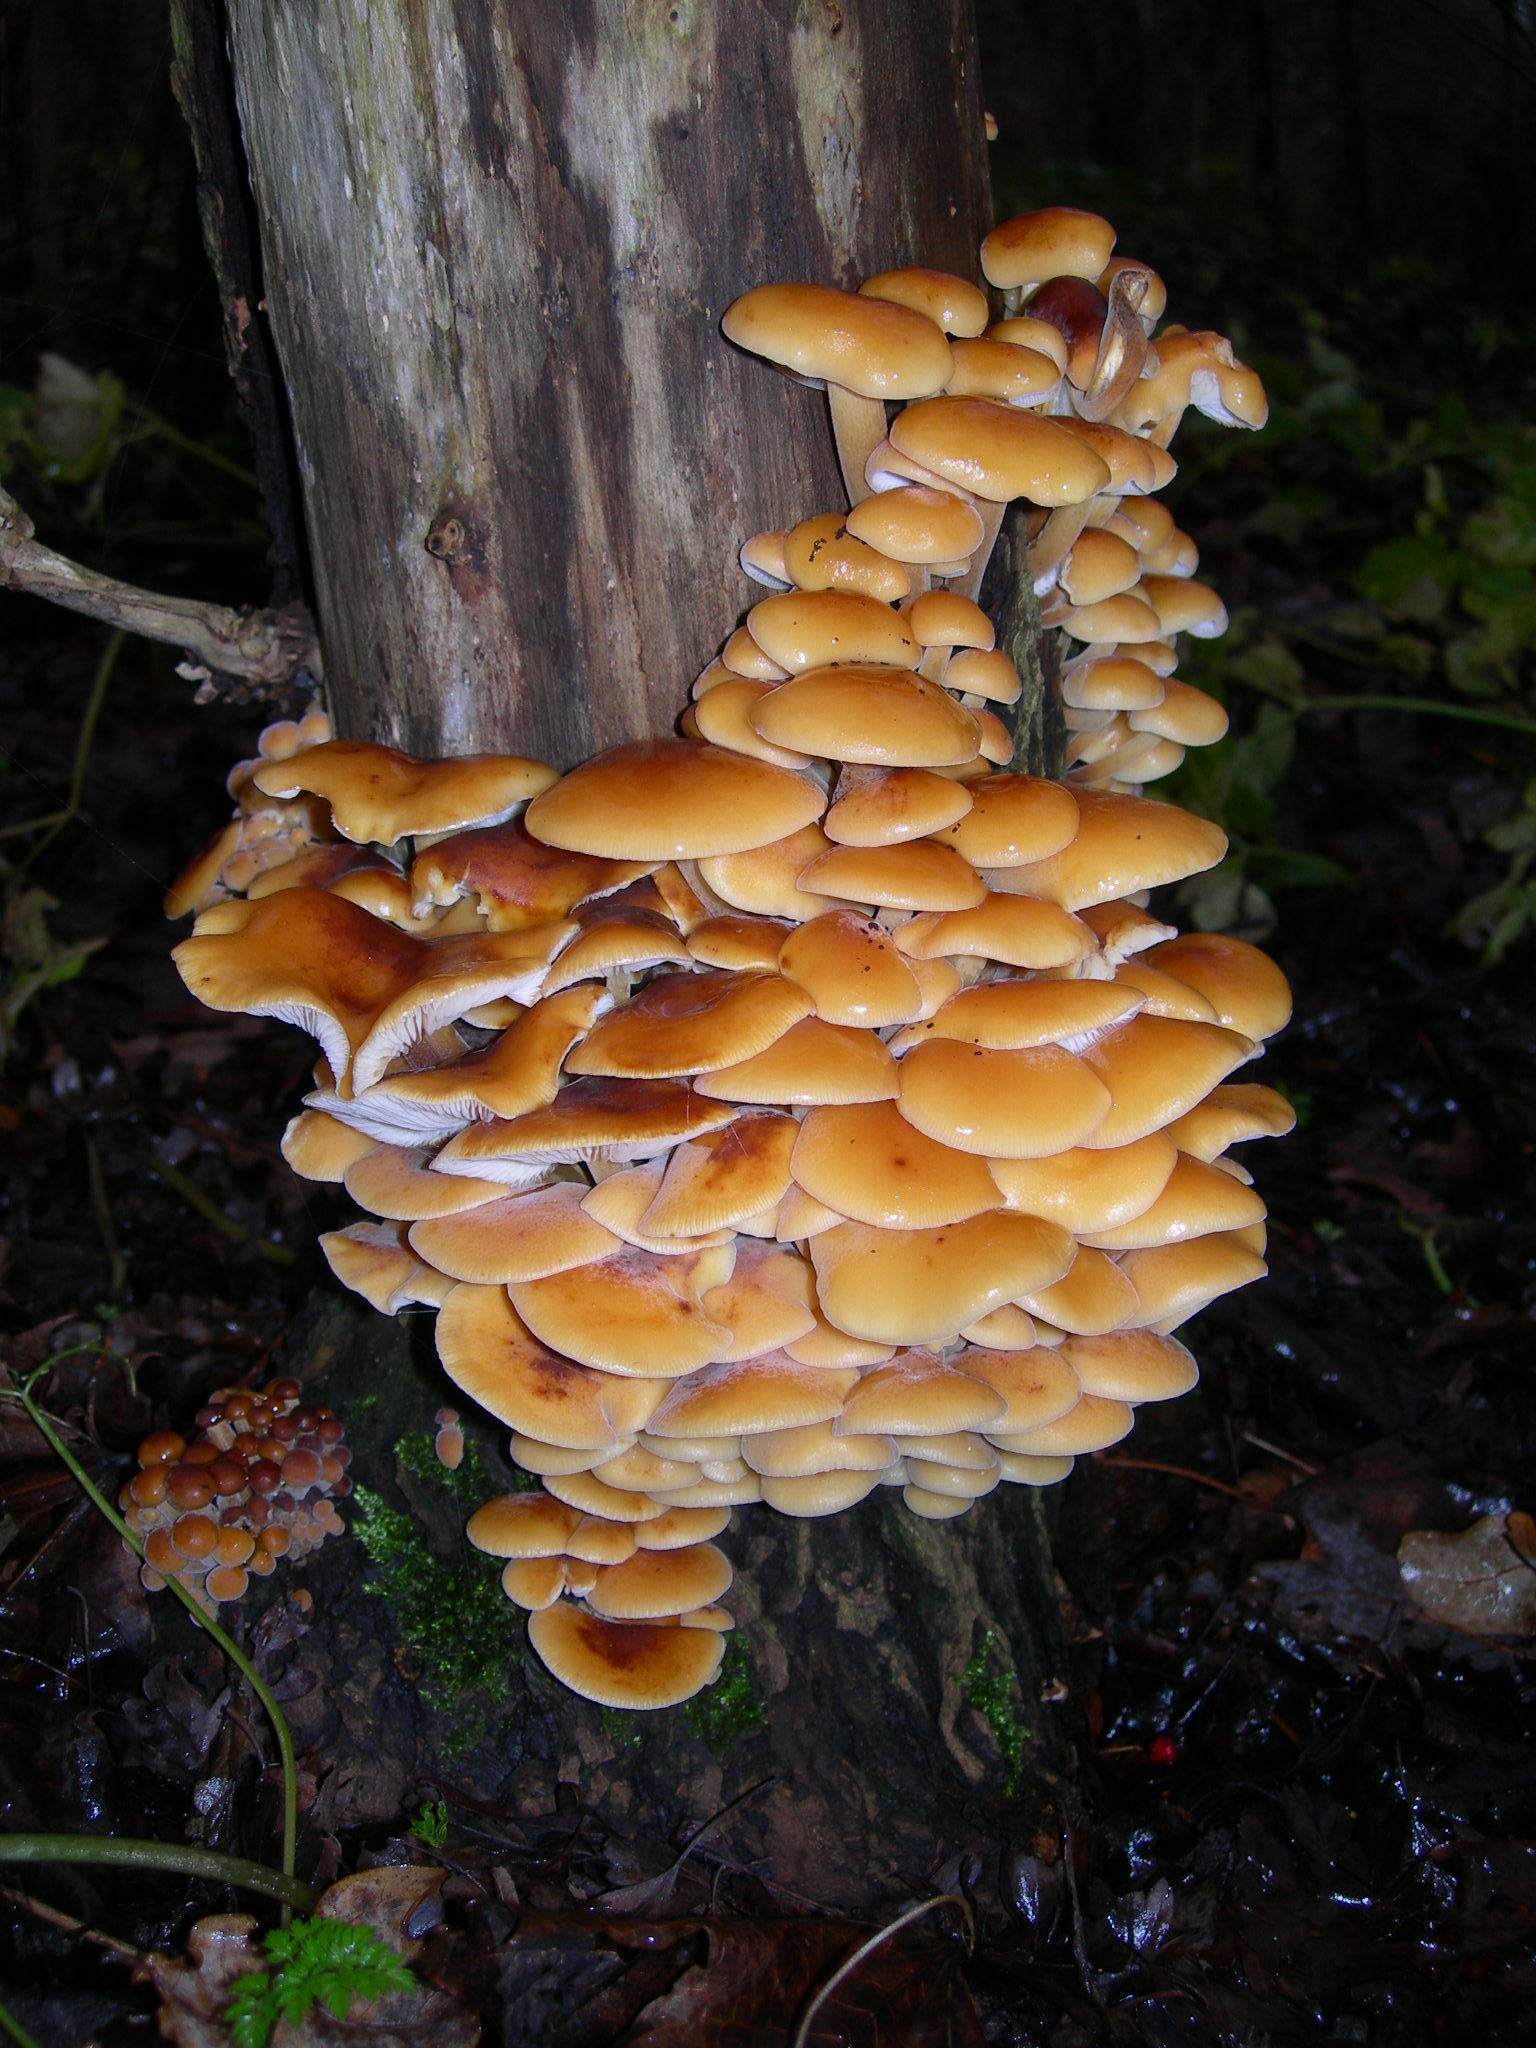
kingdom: Fungi
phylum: Basidiomycota
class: Agaricomycetes
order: Agaricales
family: Physalacriaceae
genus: Flammulina
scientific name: Flammulina
